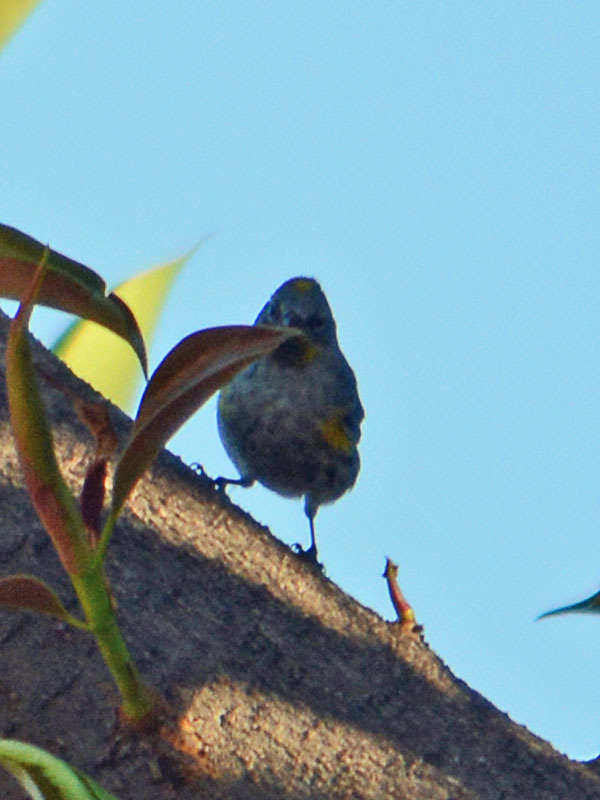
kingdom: Animalia
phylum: Chordata
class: Aves
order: Passeriformes
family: Parulidae
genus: Setophaga
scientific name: Setophaga coronata
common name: Myrtle warbler
